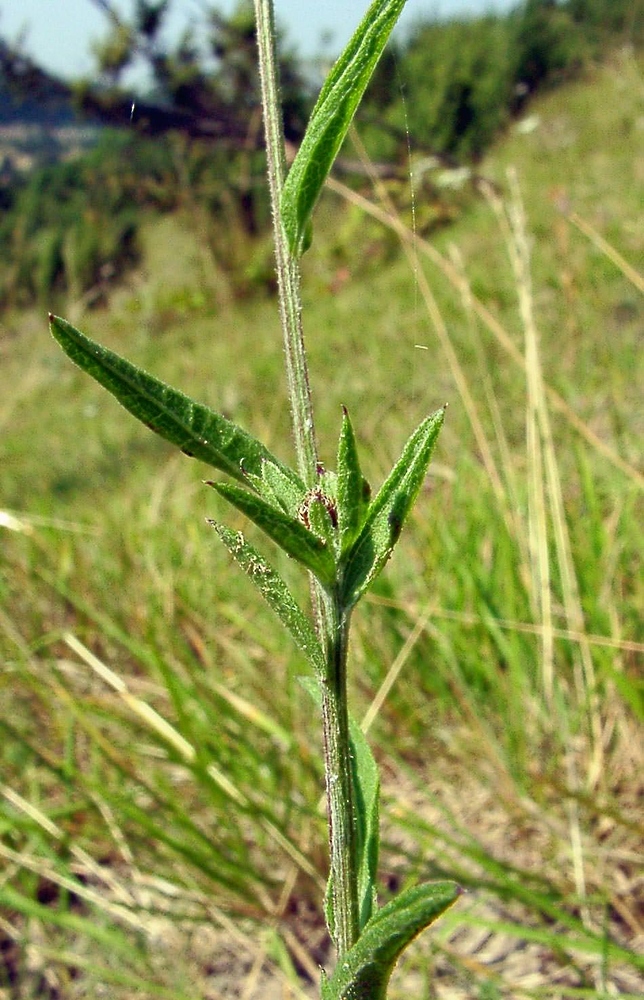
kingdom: Plantae
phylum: Tracheophyta
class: Magnoliopsida
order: Asterales
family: Asteraceae
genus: Centaurea
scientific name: Centaurea decipiens
